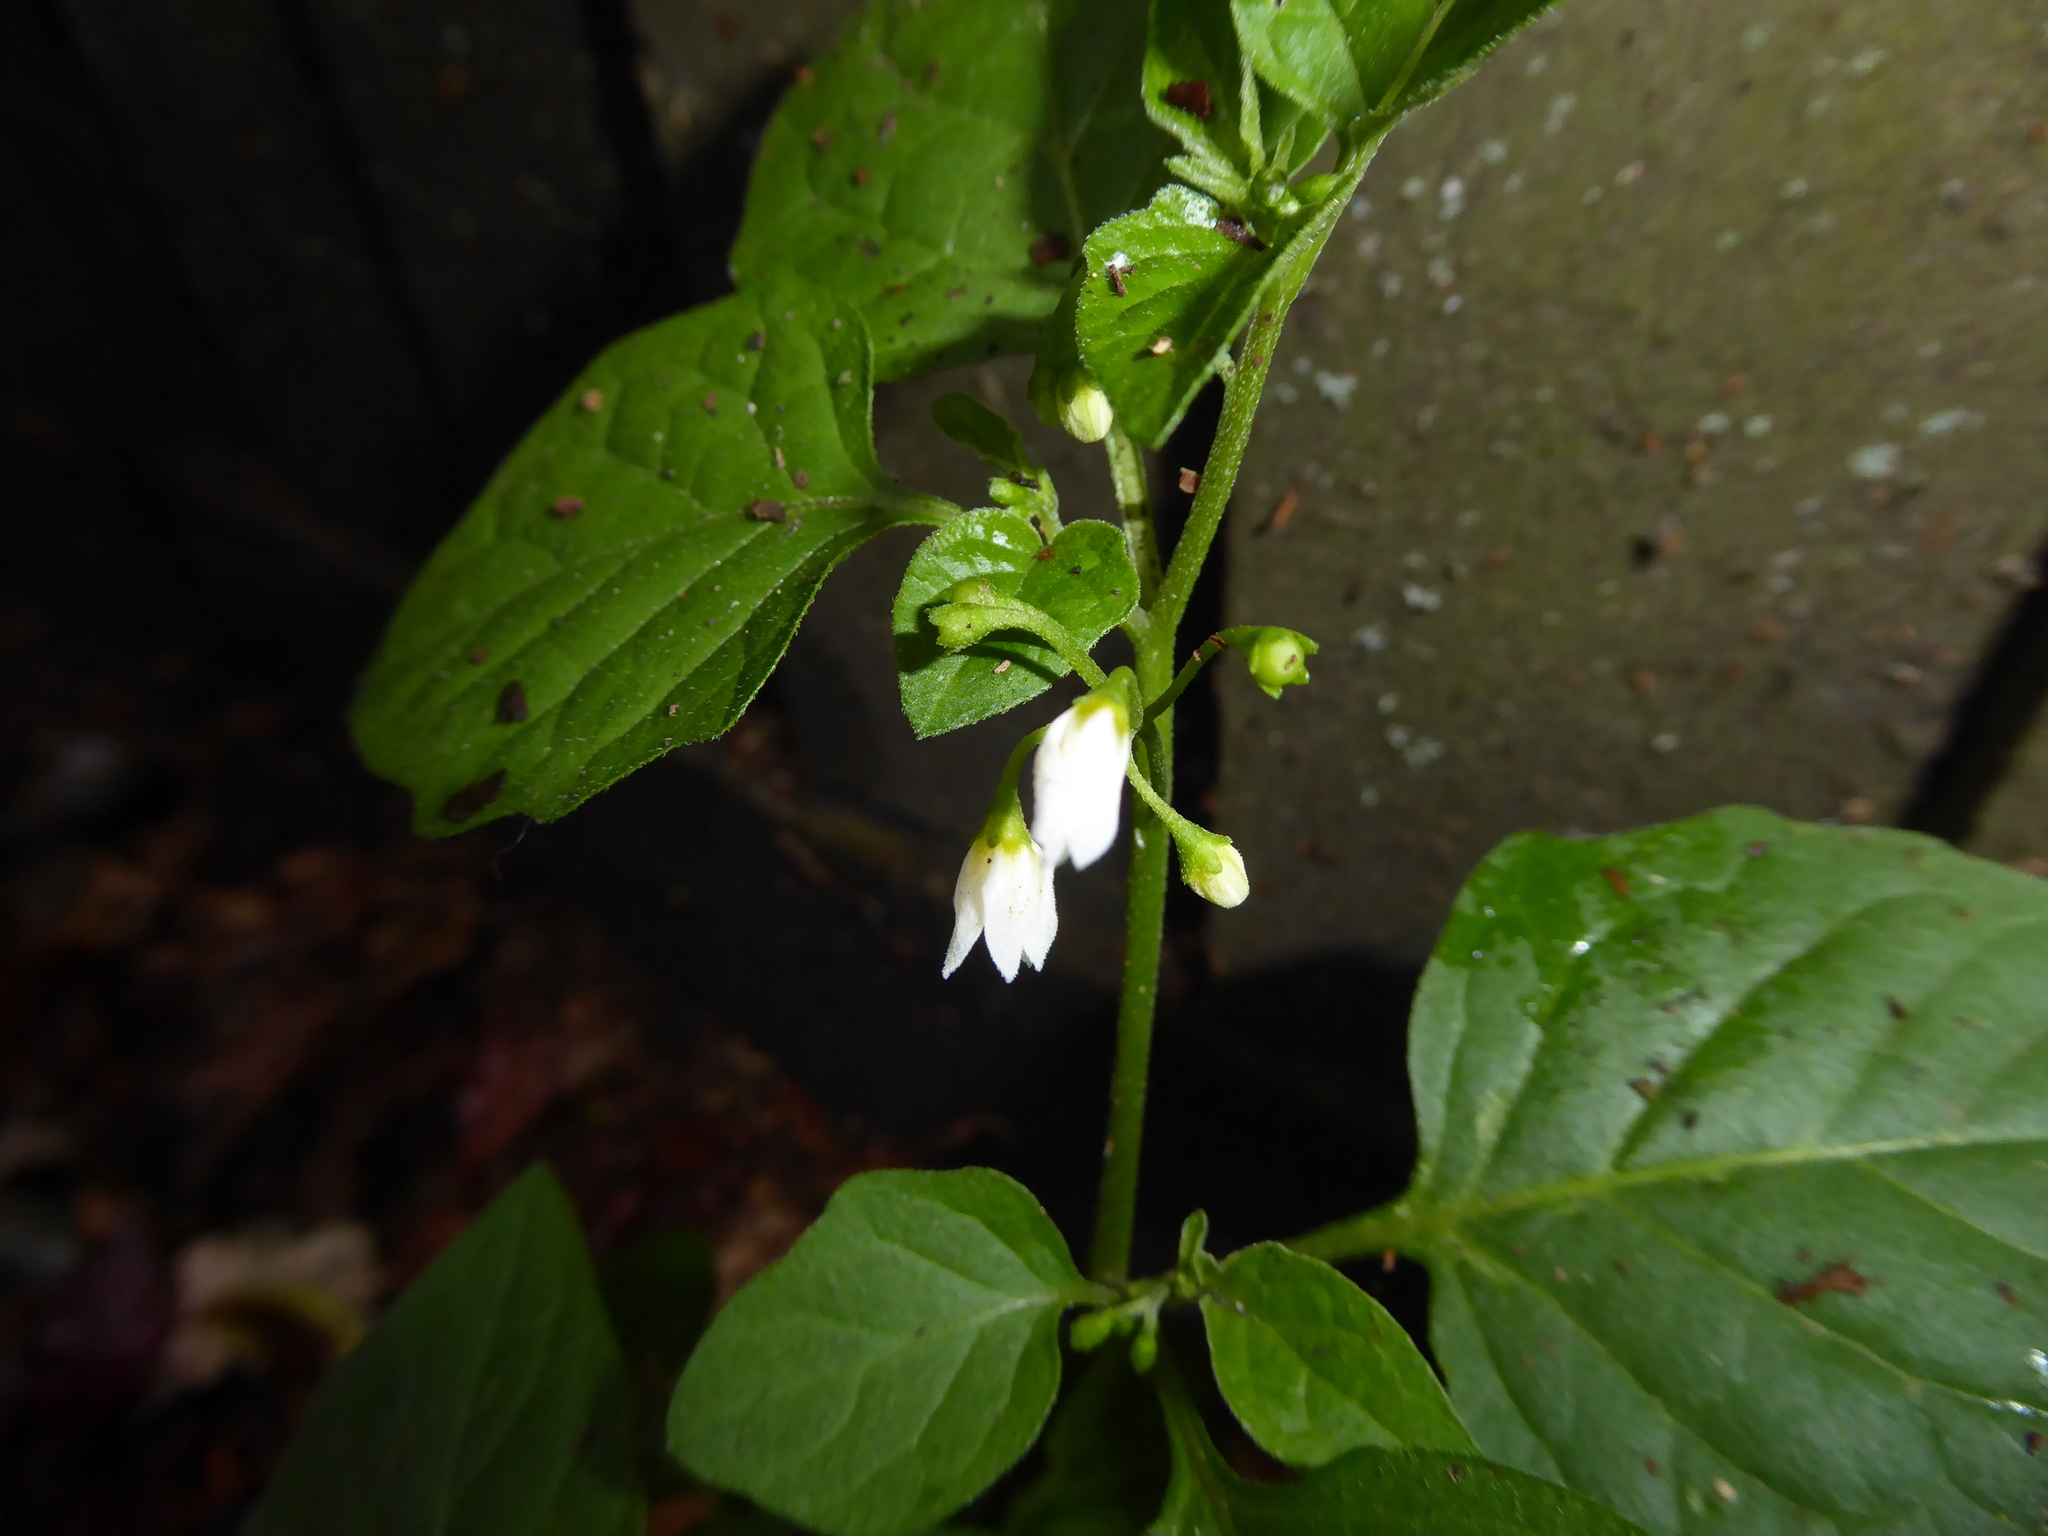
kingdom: Plantae
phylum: Tracheophyta
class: Magnoliopsida
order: Solanales
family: Solanaceae
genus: Solanum
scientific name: Solanum nigrum
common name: Black nightshade
